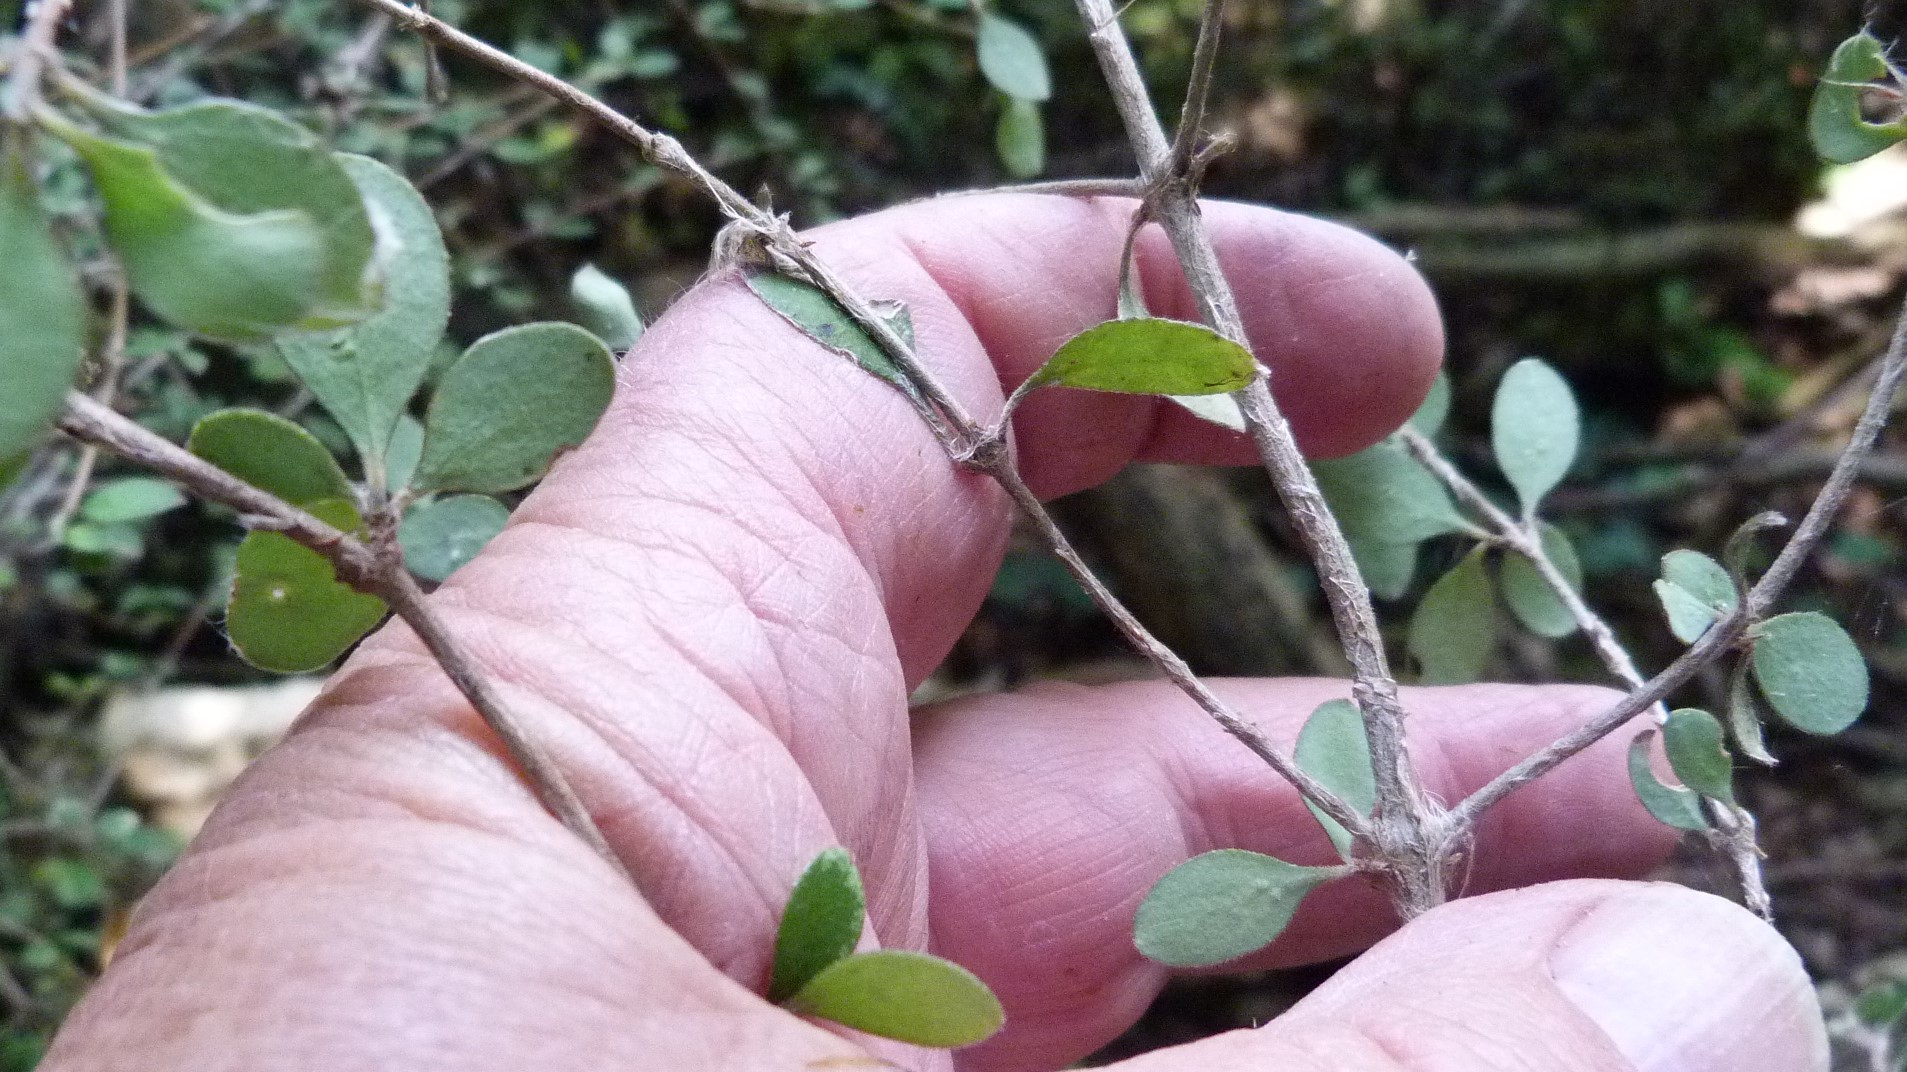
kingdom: Plantae
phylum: Tracheophyta
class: Magnoliopsida
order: Gentianales
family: Rubiaceae
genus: Coprosma
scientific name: Coprosma crassifolia
